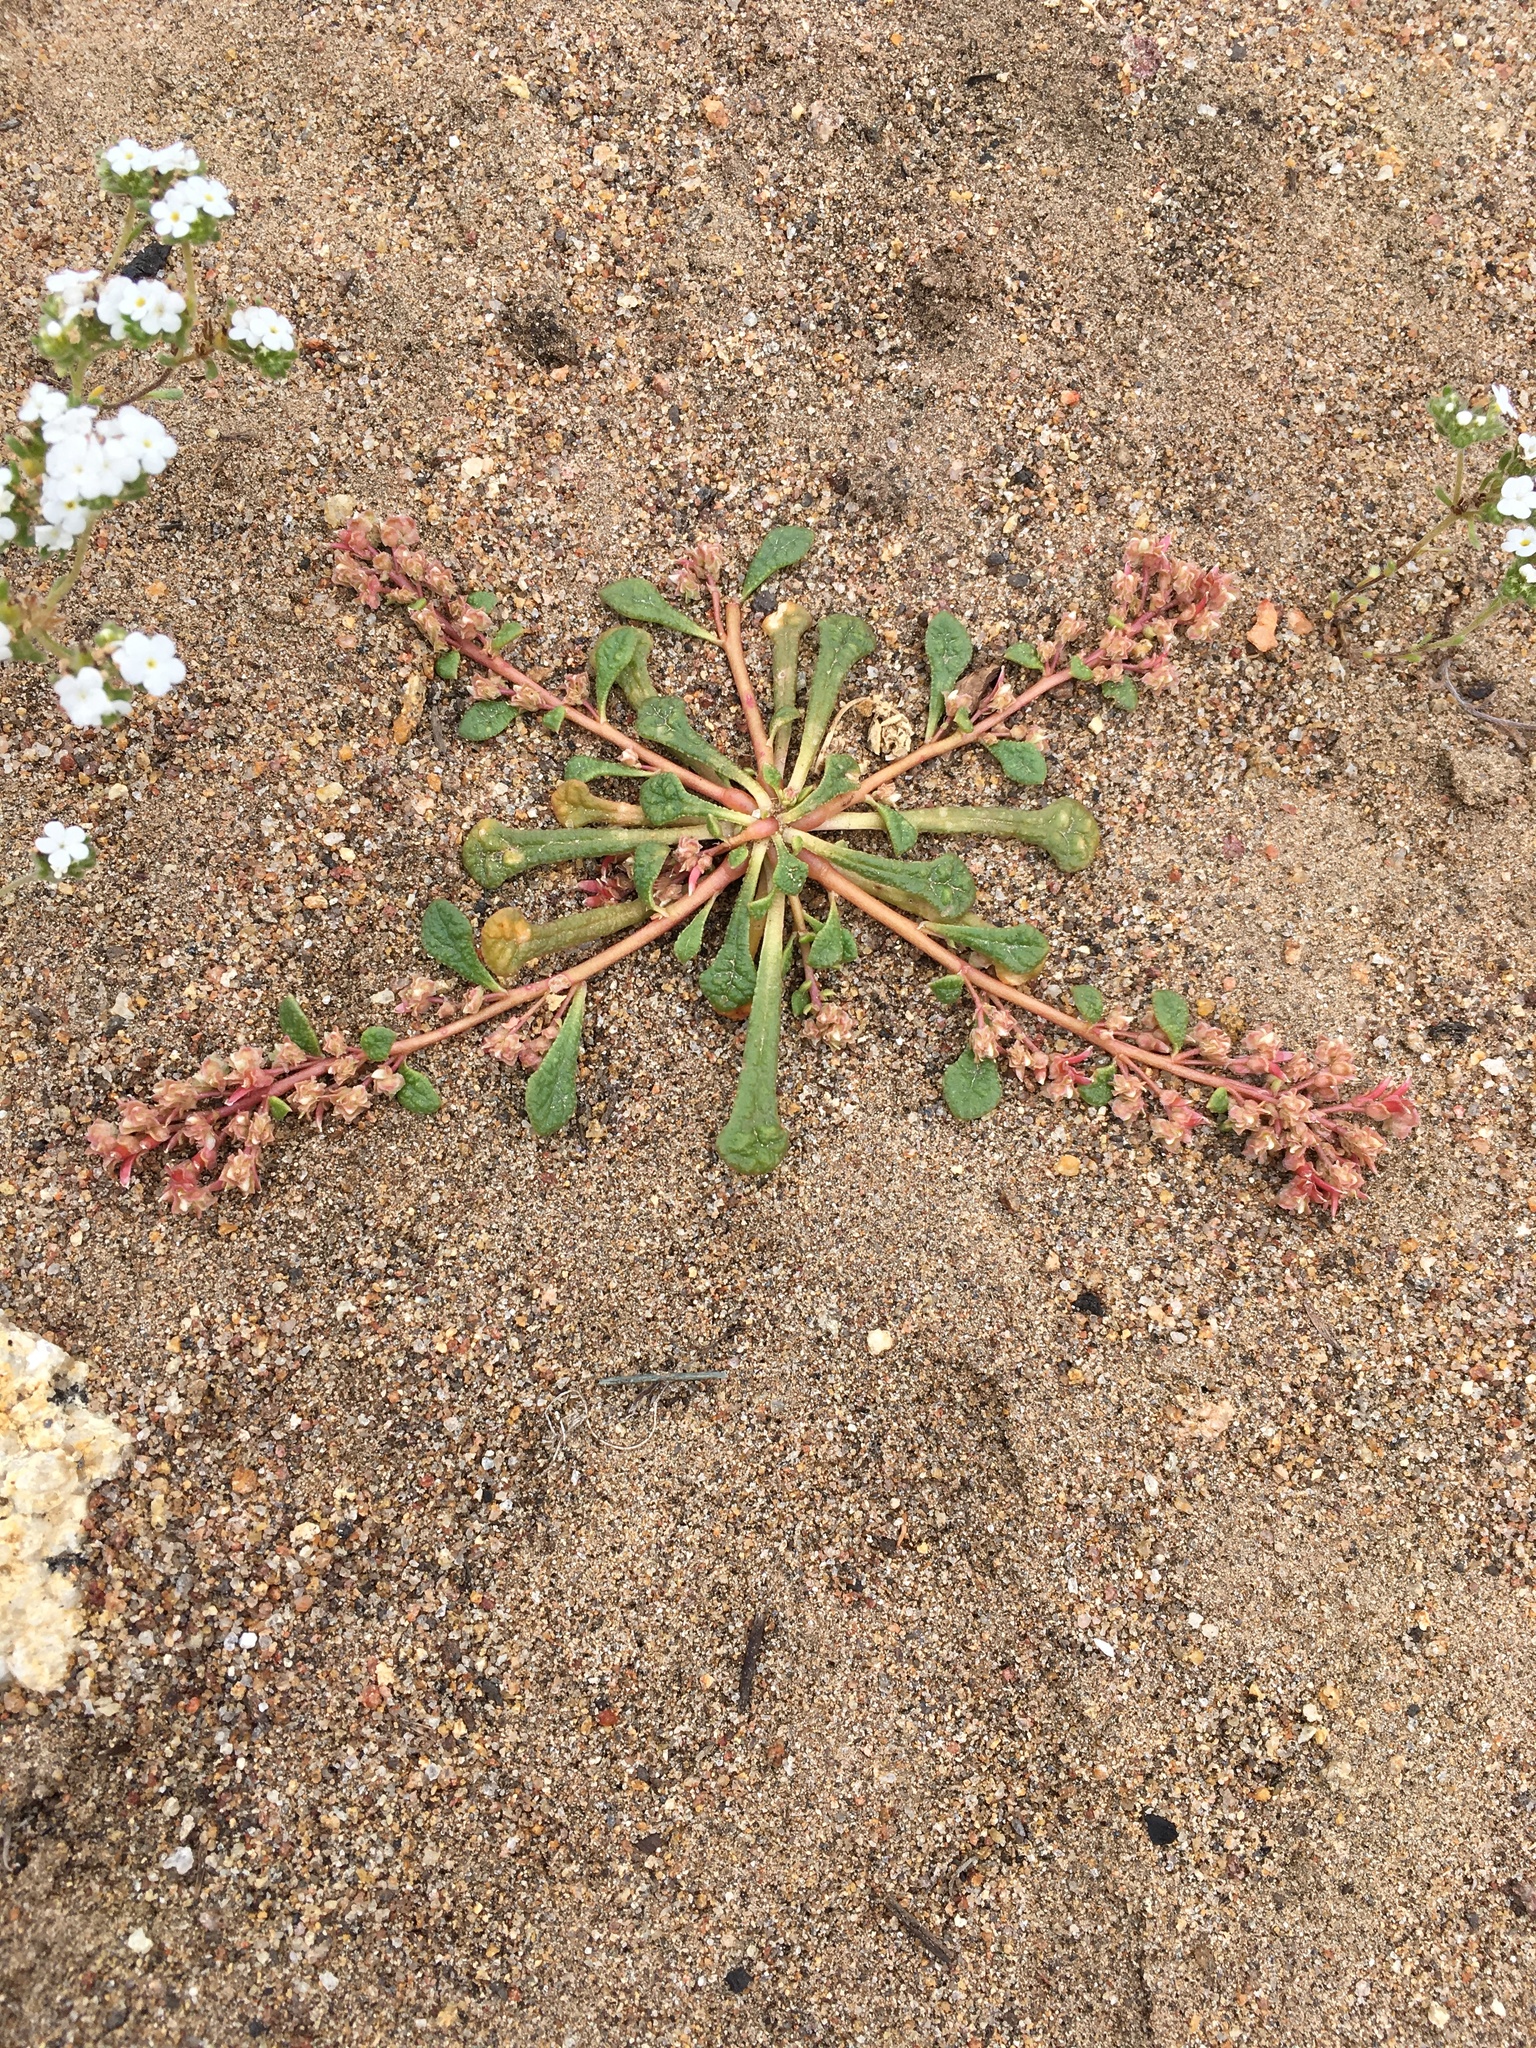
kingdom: Plantae
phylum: Tracheophyta
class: Magnoliopsida
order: Caryophyllales
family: Montiaceae
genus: Calyptridium
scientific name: Calyptridium monandrum
